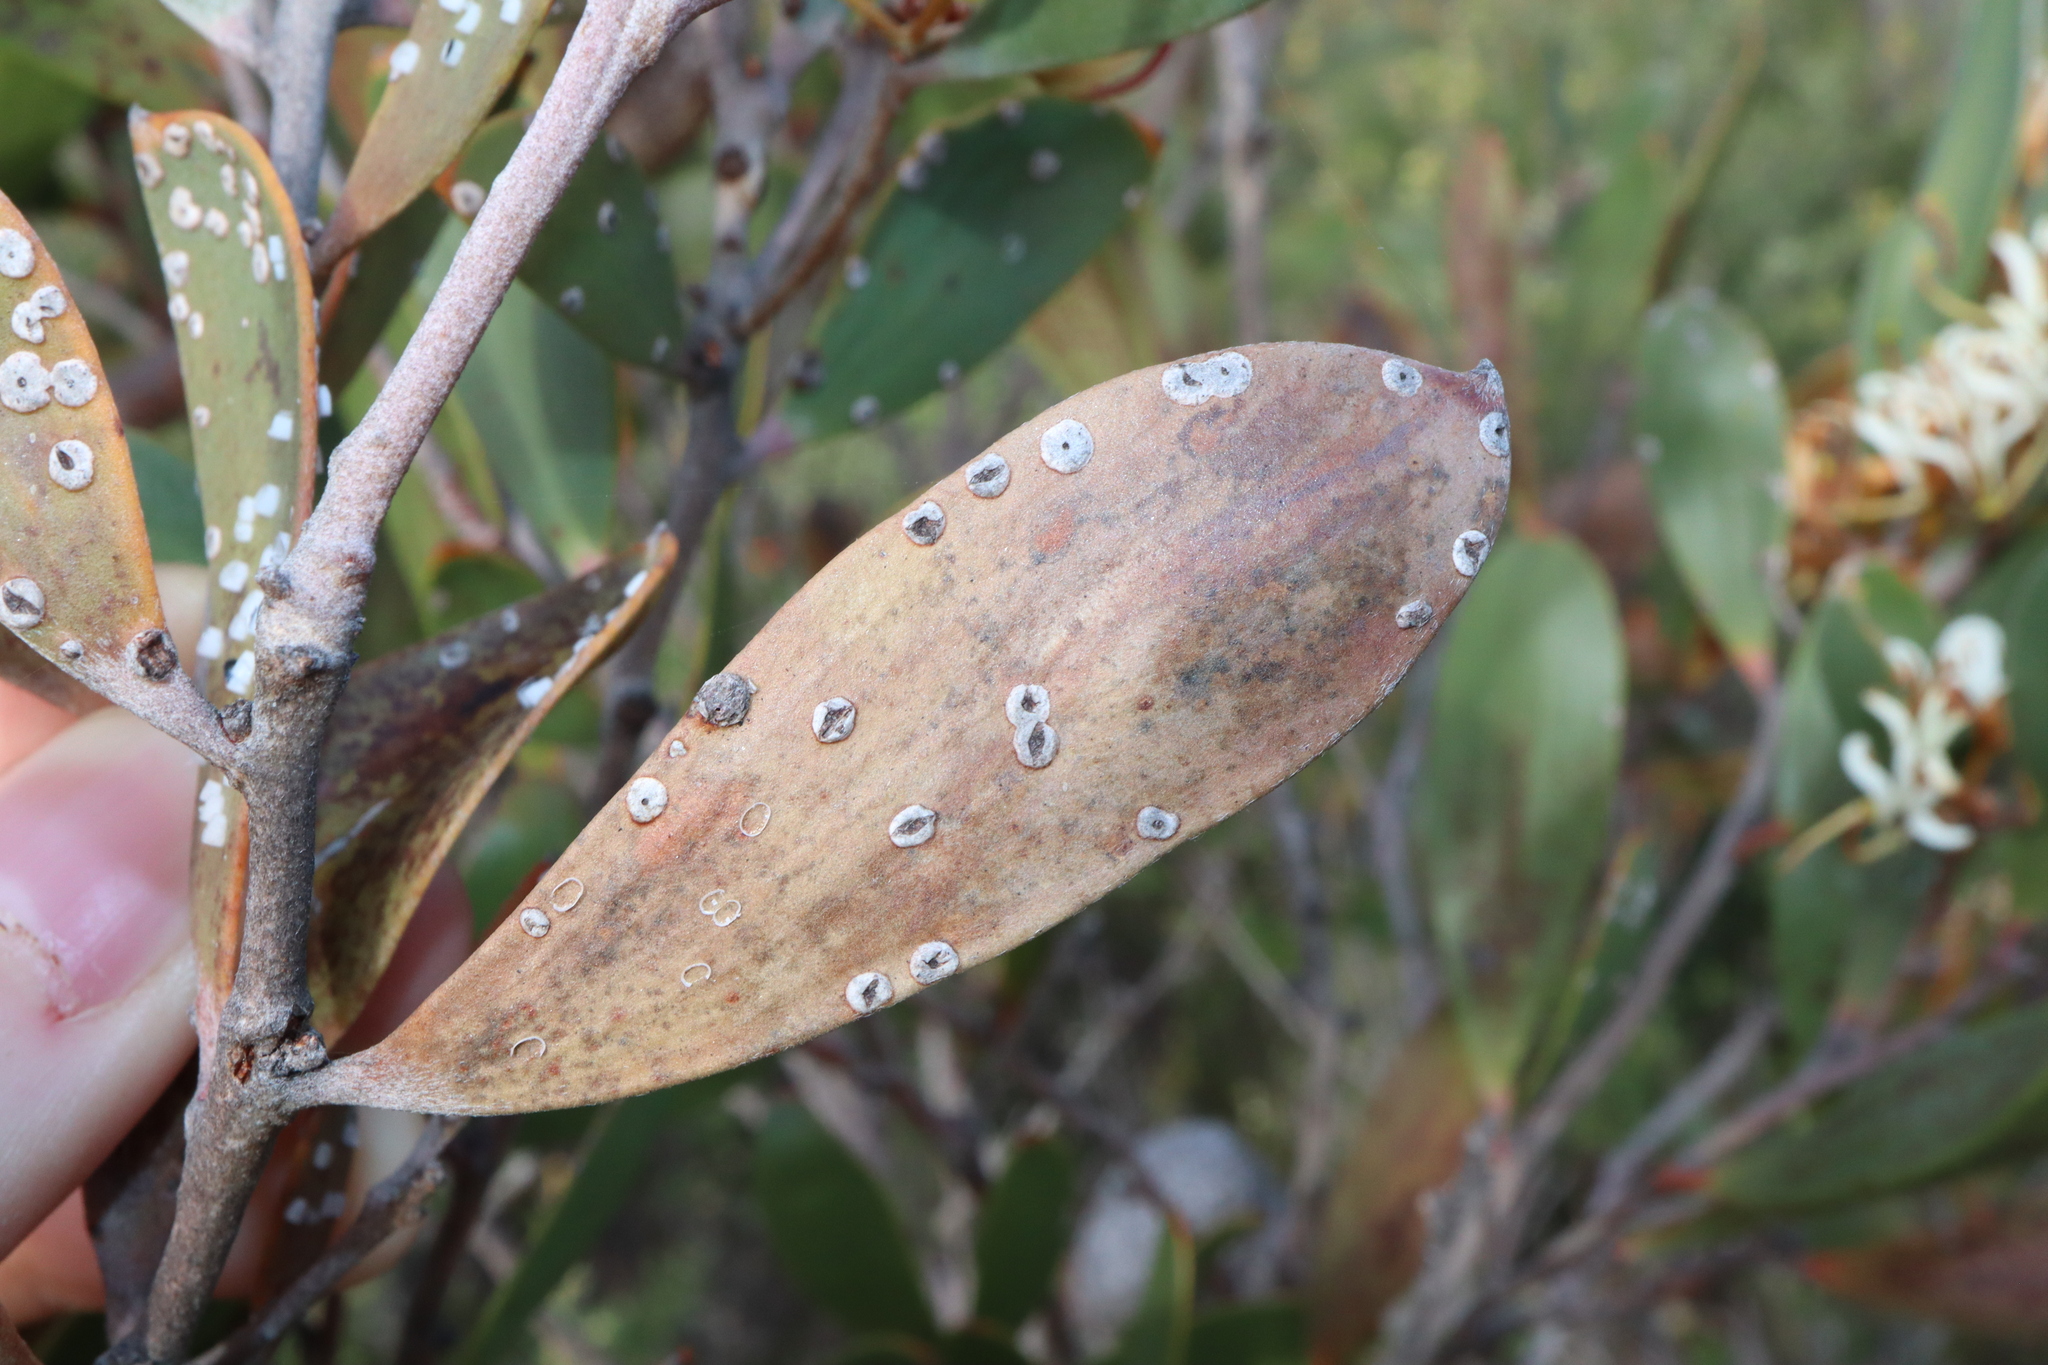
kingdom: Plantae
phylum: Tracheophyta
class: Magnoliopsida
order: Proteales
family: Proteaceae
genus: Hakea
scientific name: Hakea pandanicarpa
